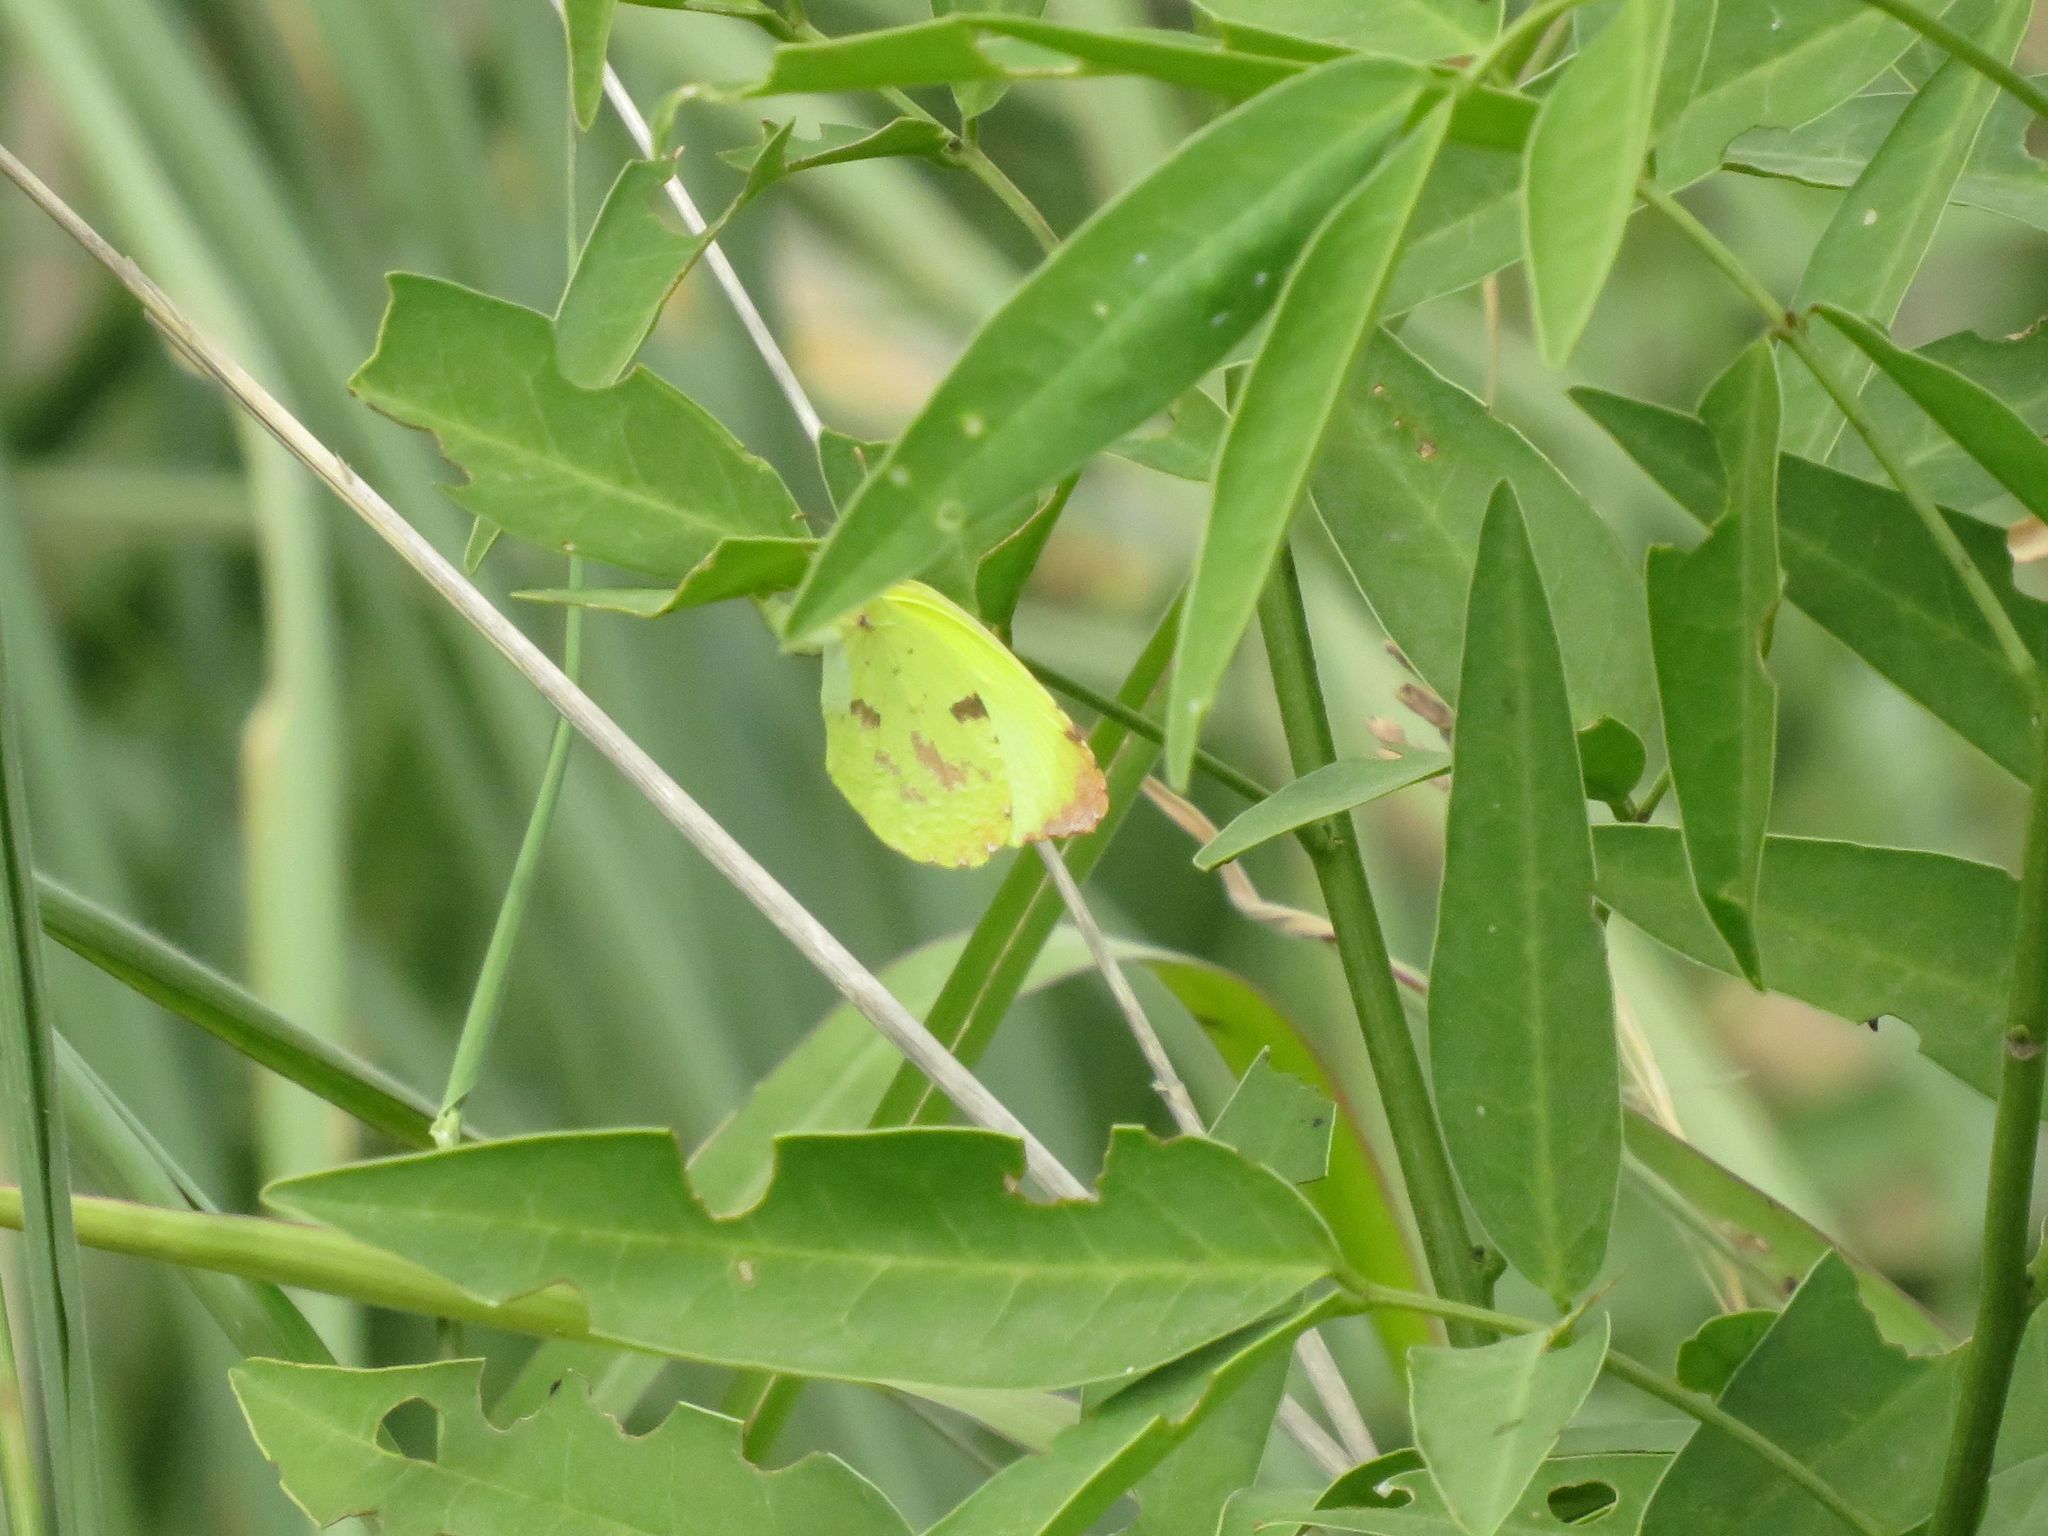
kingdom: Animalia
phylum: Arthropoda
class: Insecta
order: Lepidoptera
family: Pieridae
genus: Teriocolias
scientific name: Teriocolias
